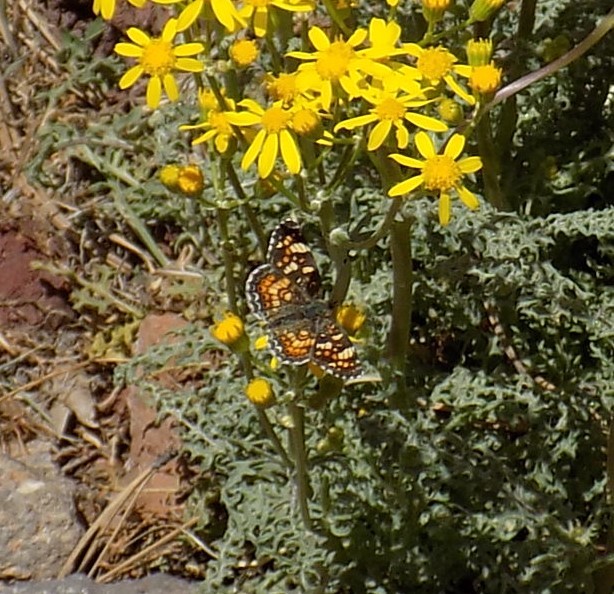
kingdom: Animalia
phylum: Arthropoda
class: Insecta
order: Lepidoptera
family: Nymphalidae
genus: Phyciodes
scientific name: Phyciodes tharos
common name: Pearl crescent
